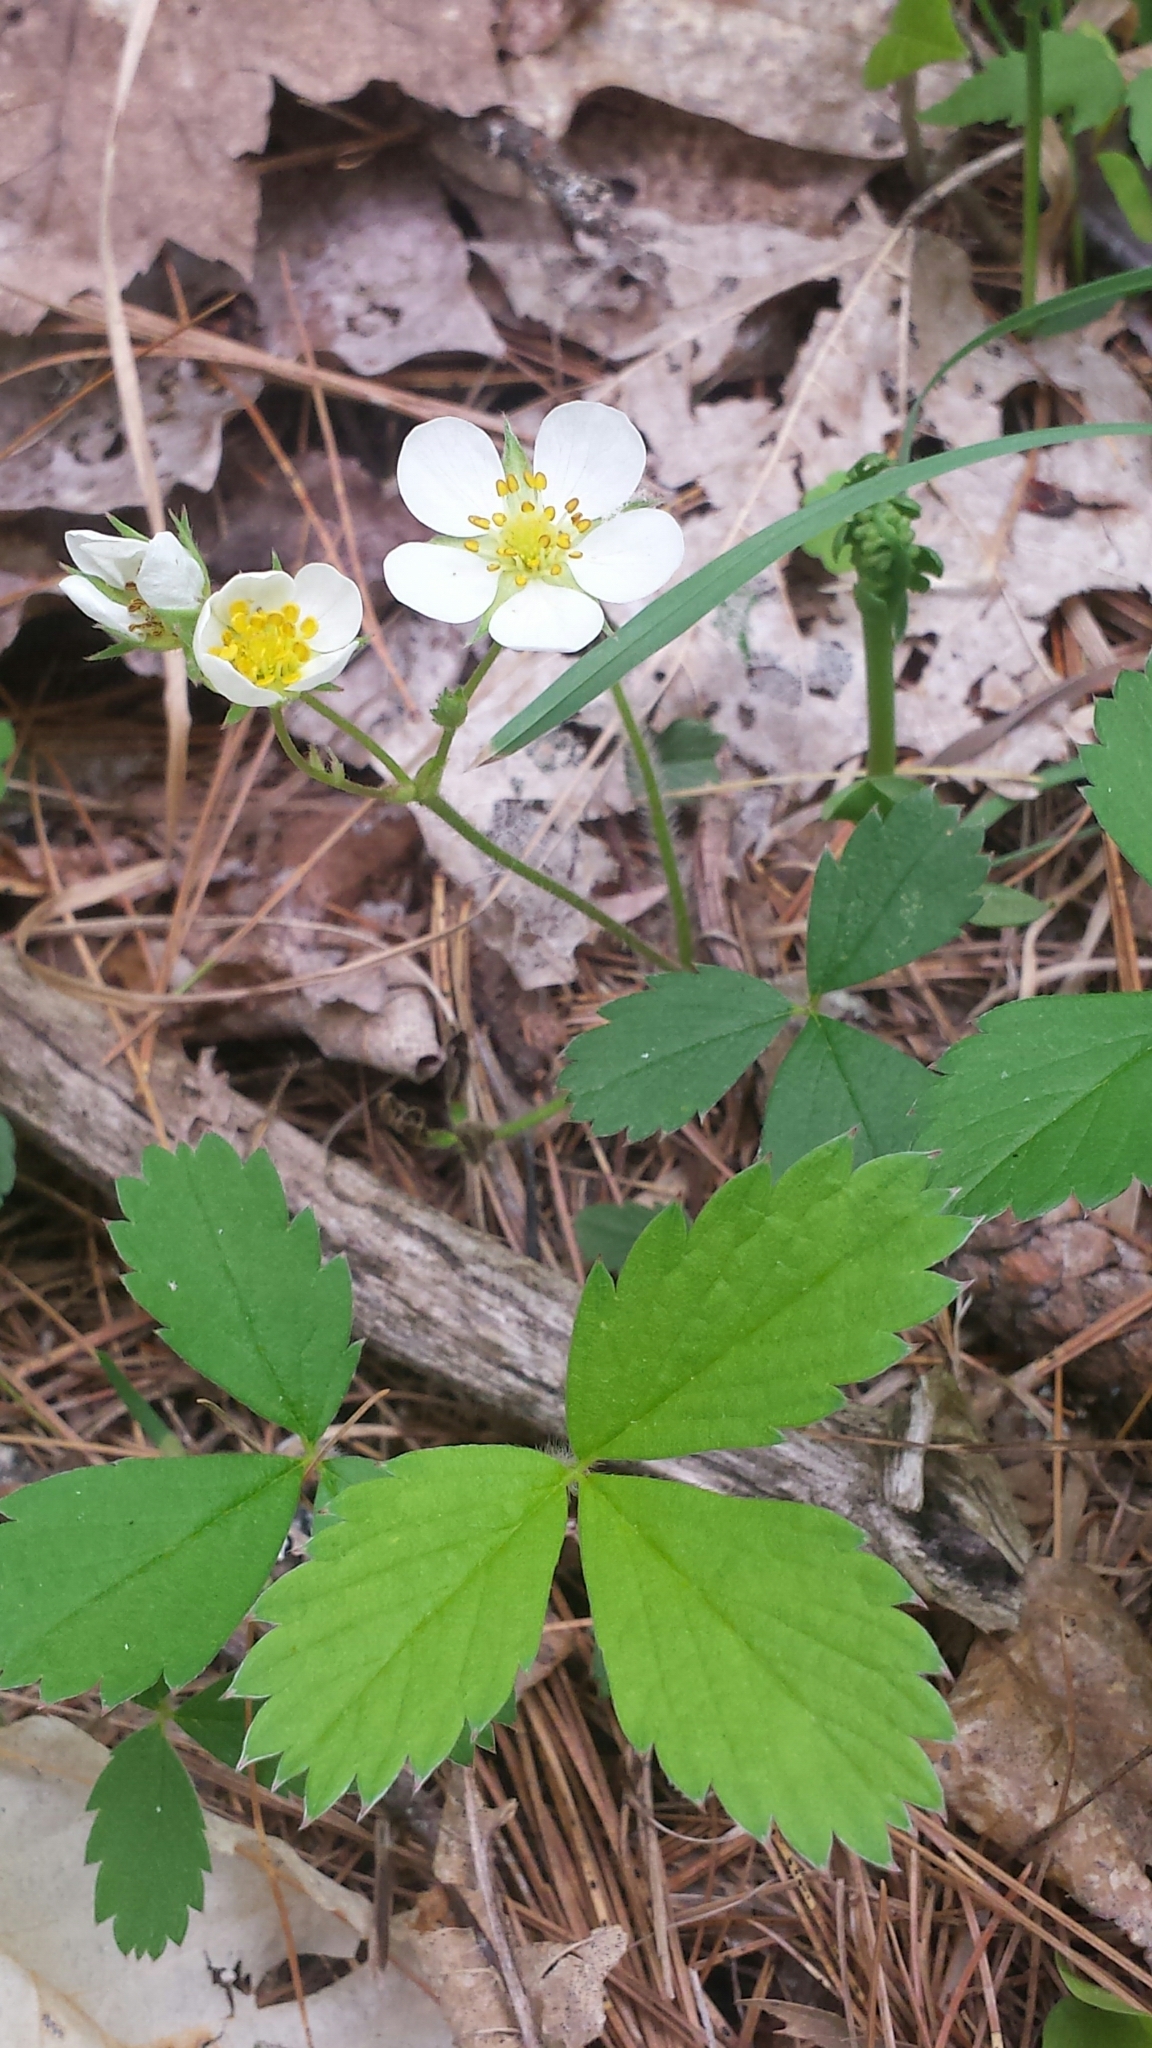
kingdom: Plantae
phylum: Tracheophyta
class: Magnoliopsida
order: Rosales
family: Rosaceae
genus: Fragaria
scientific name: Fragaria virginiana
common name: Thickleaved wild strawberry
